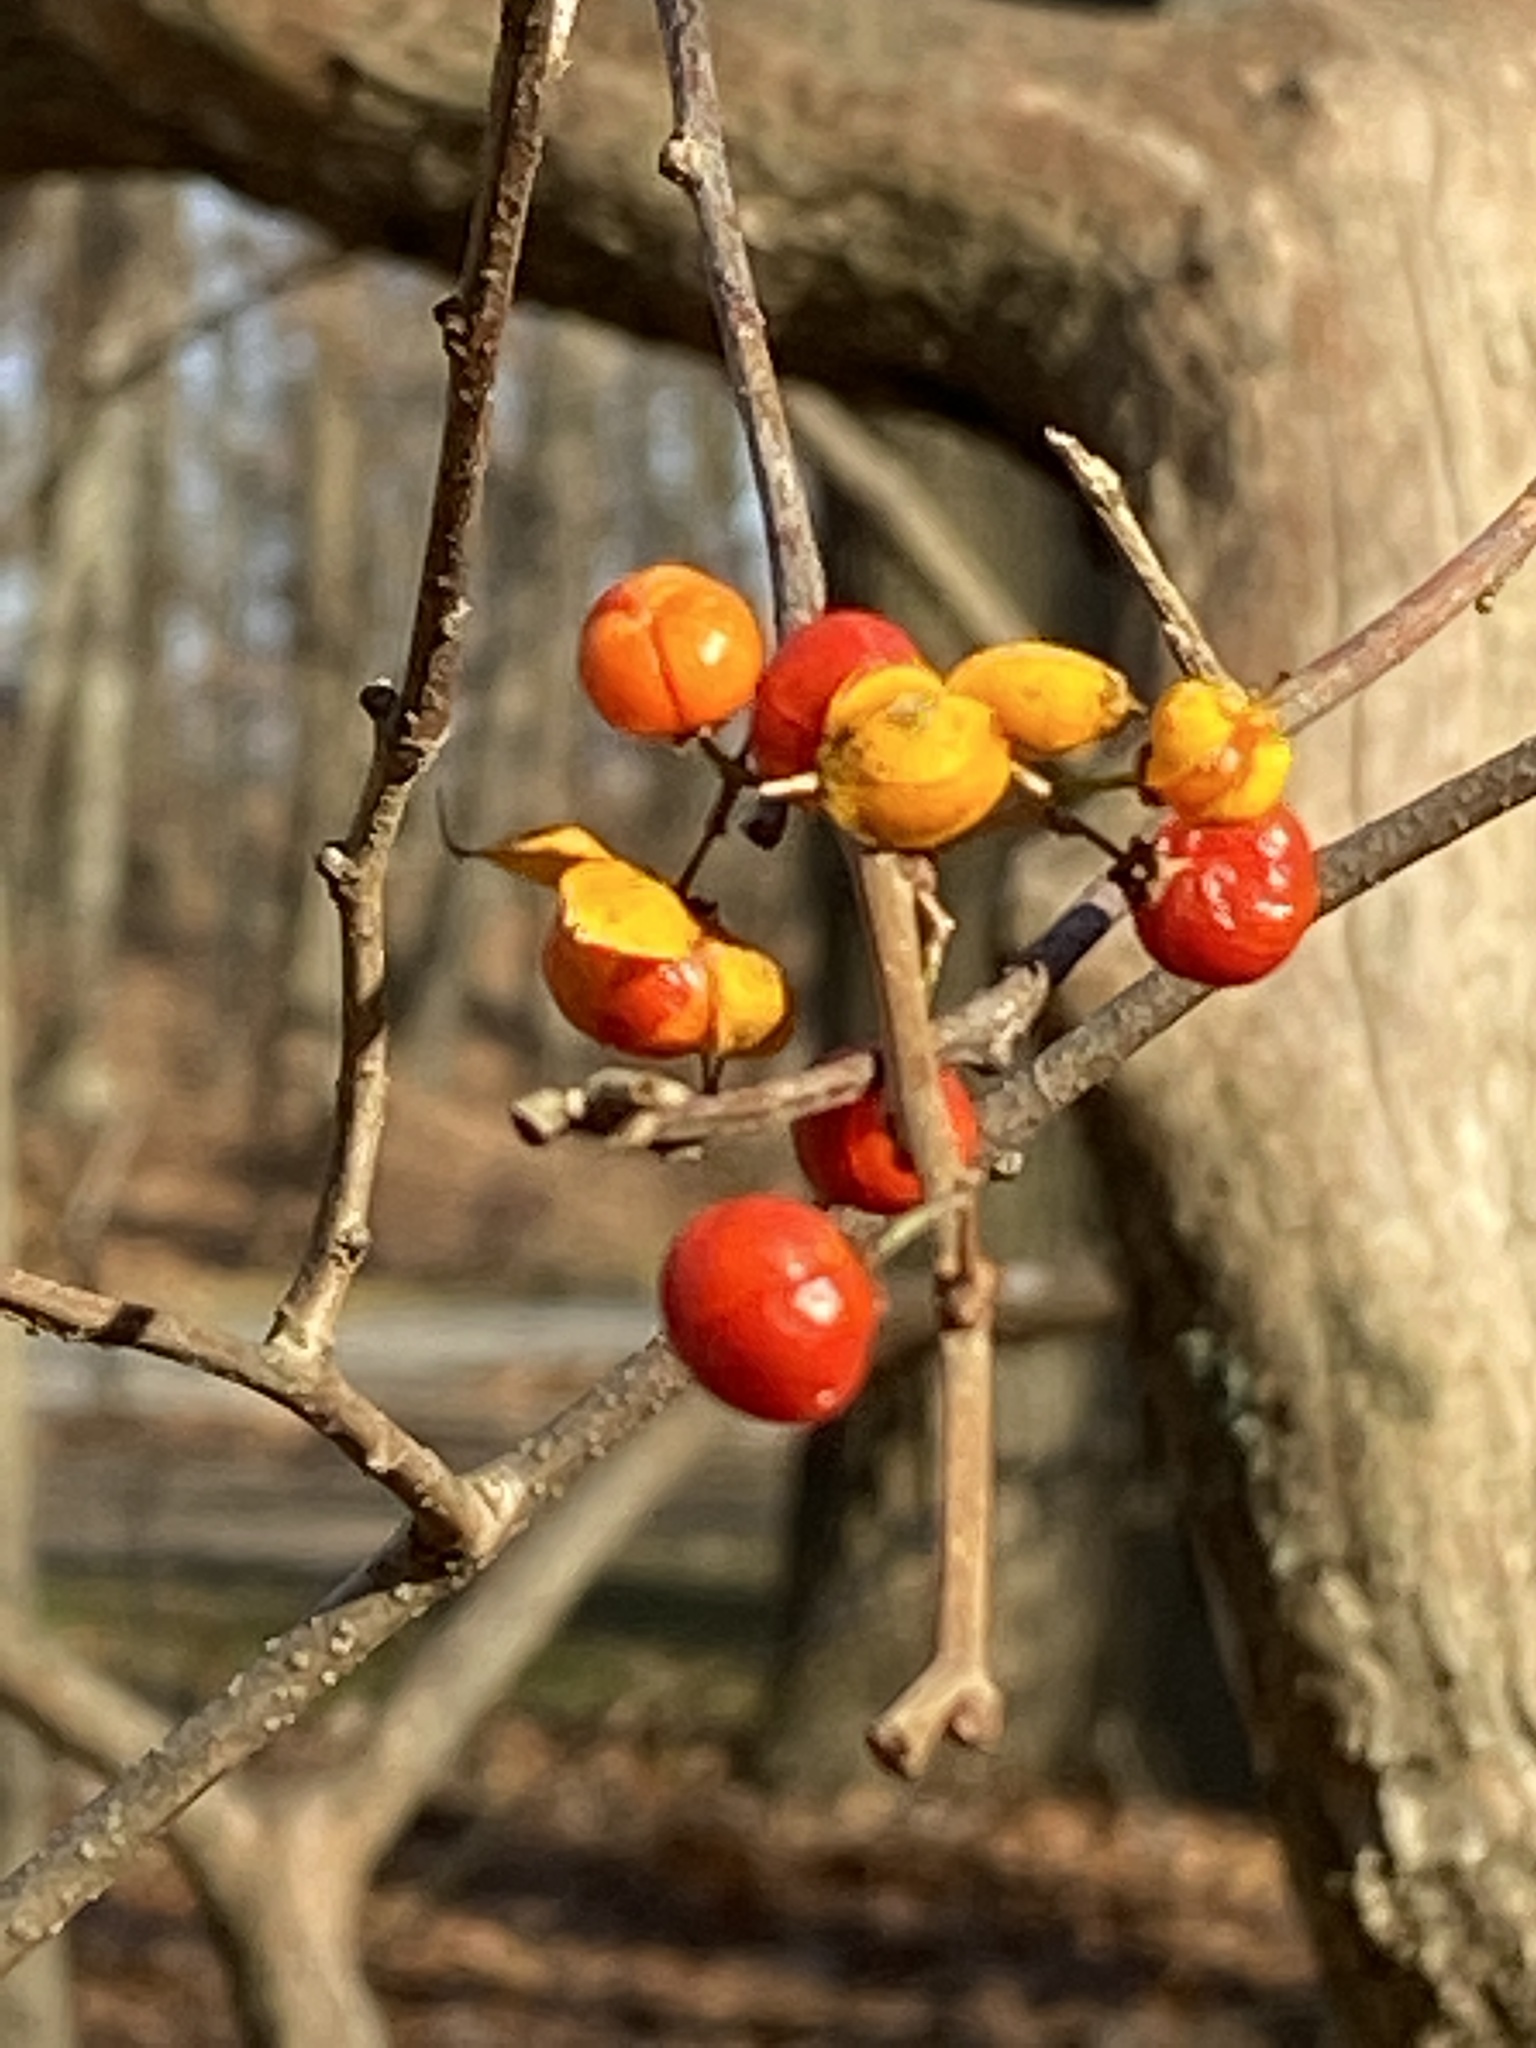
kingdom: Plantae
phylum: Tracheophyta
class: Magnoliopsida
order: Celastrales
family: Celastraceae
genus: Celastrus
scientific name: Celastrus orbiculatus
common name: Oriental bittersweet
